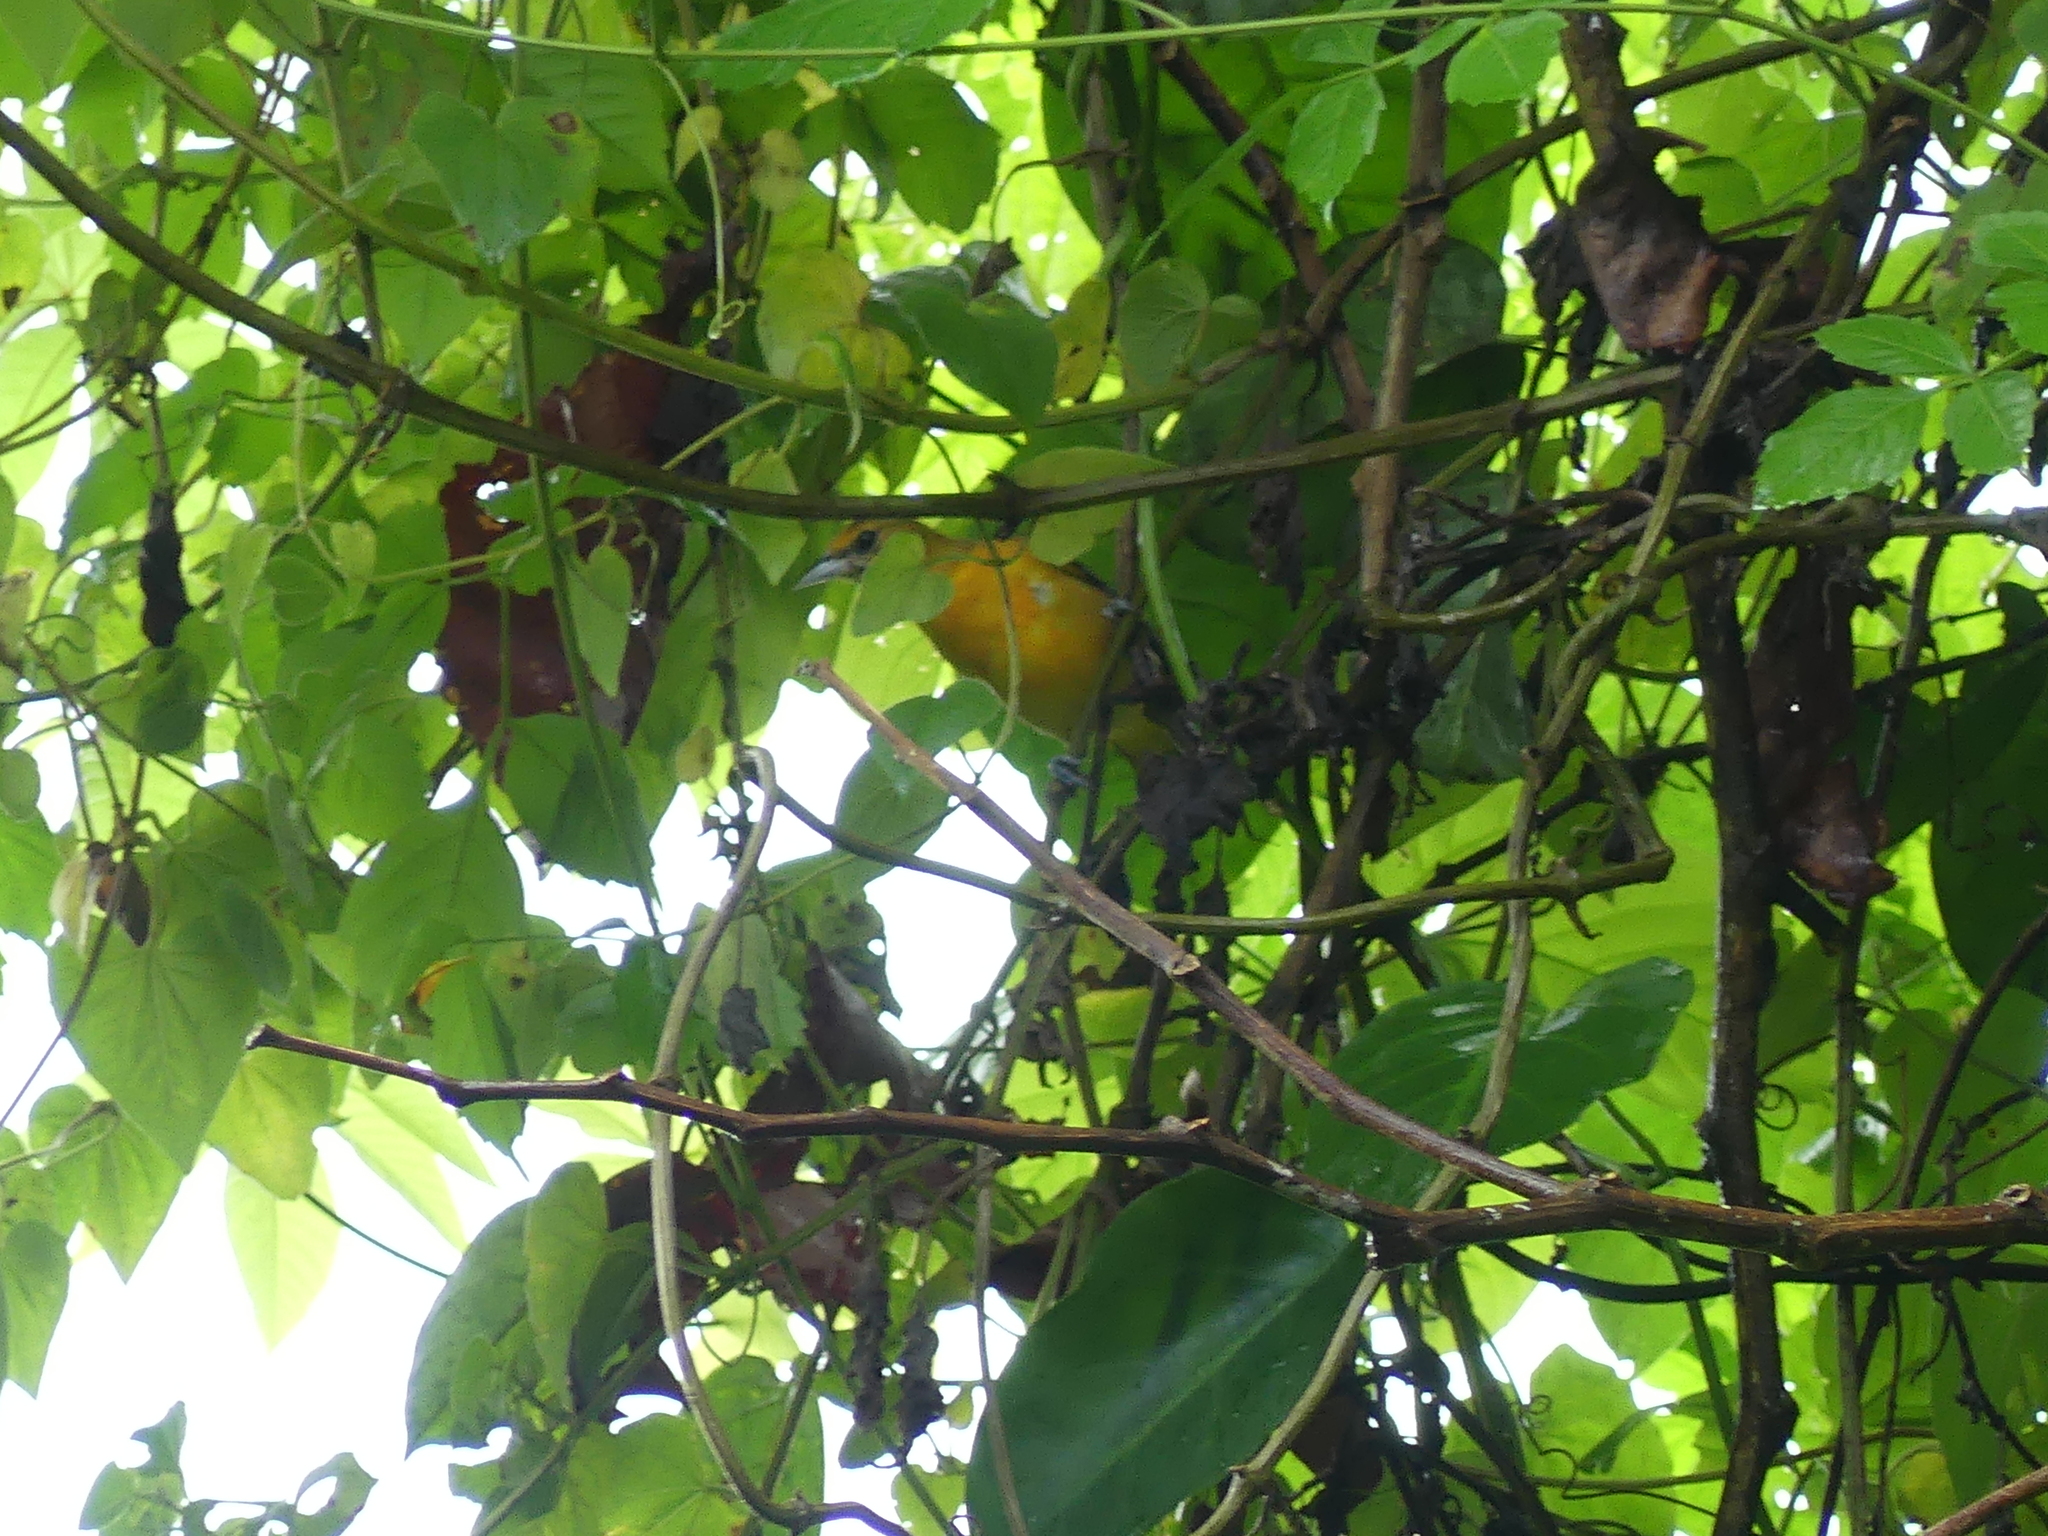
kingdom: Animalia
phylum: Chordata
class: Aves
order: Passeriformes
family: Icteridae
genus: Icterus
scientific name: Icterus galbula
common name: Baltimore oriole
